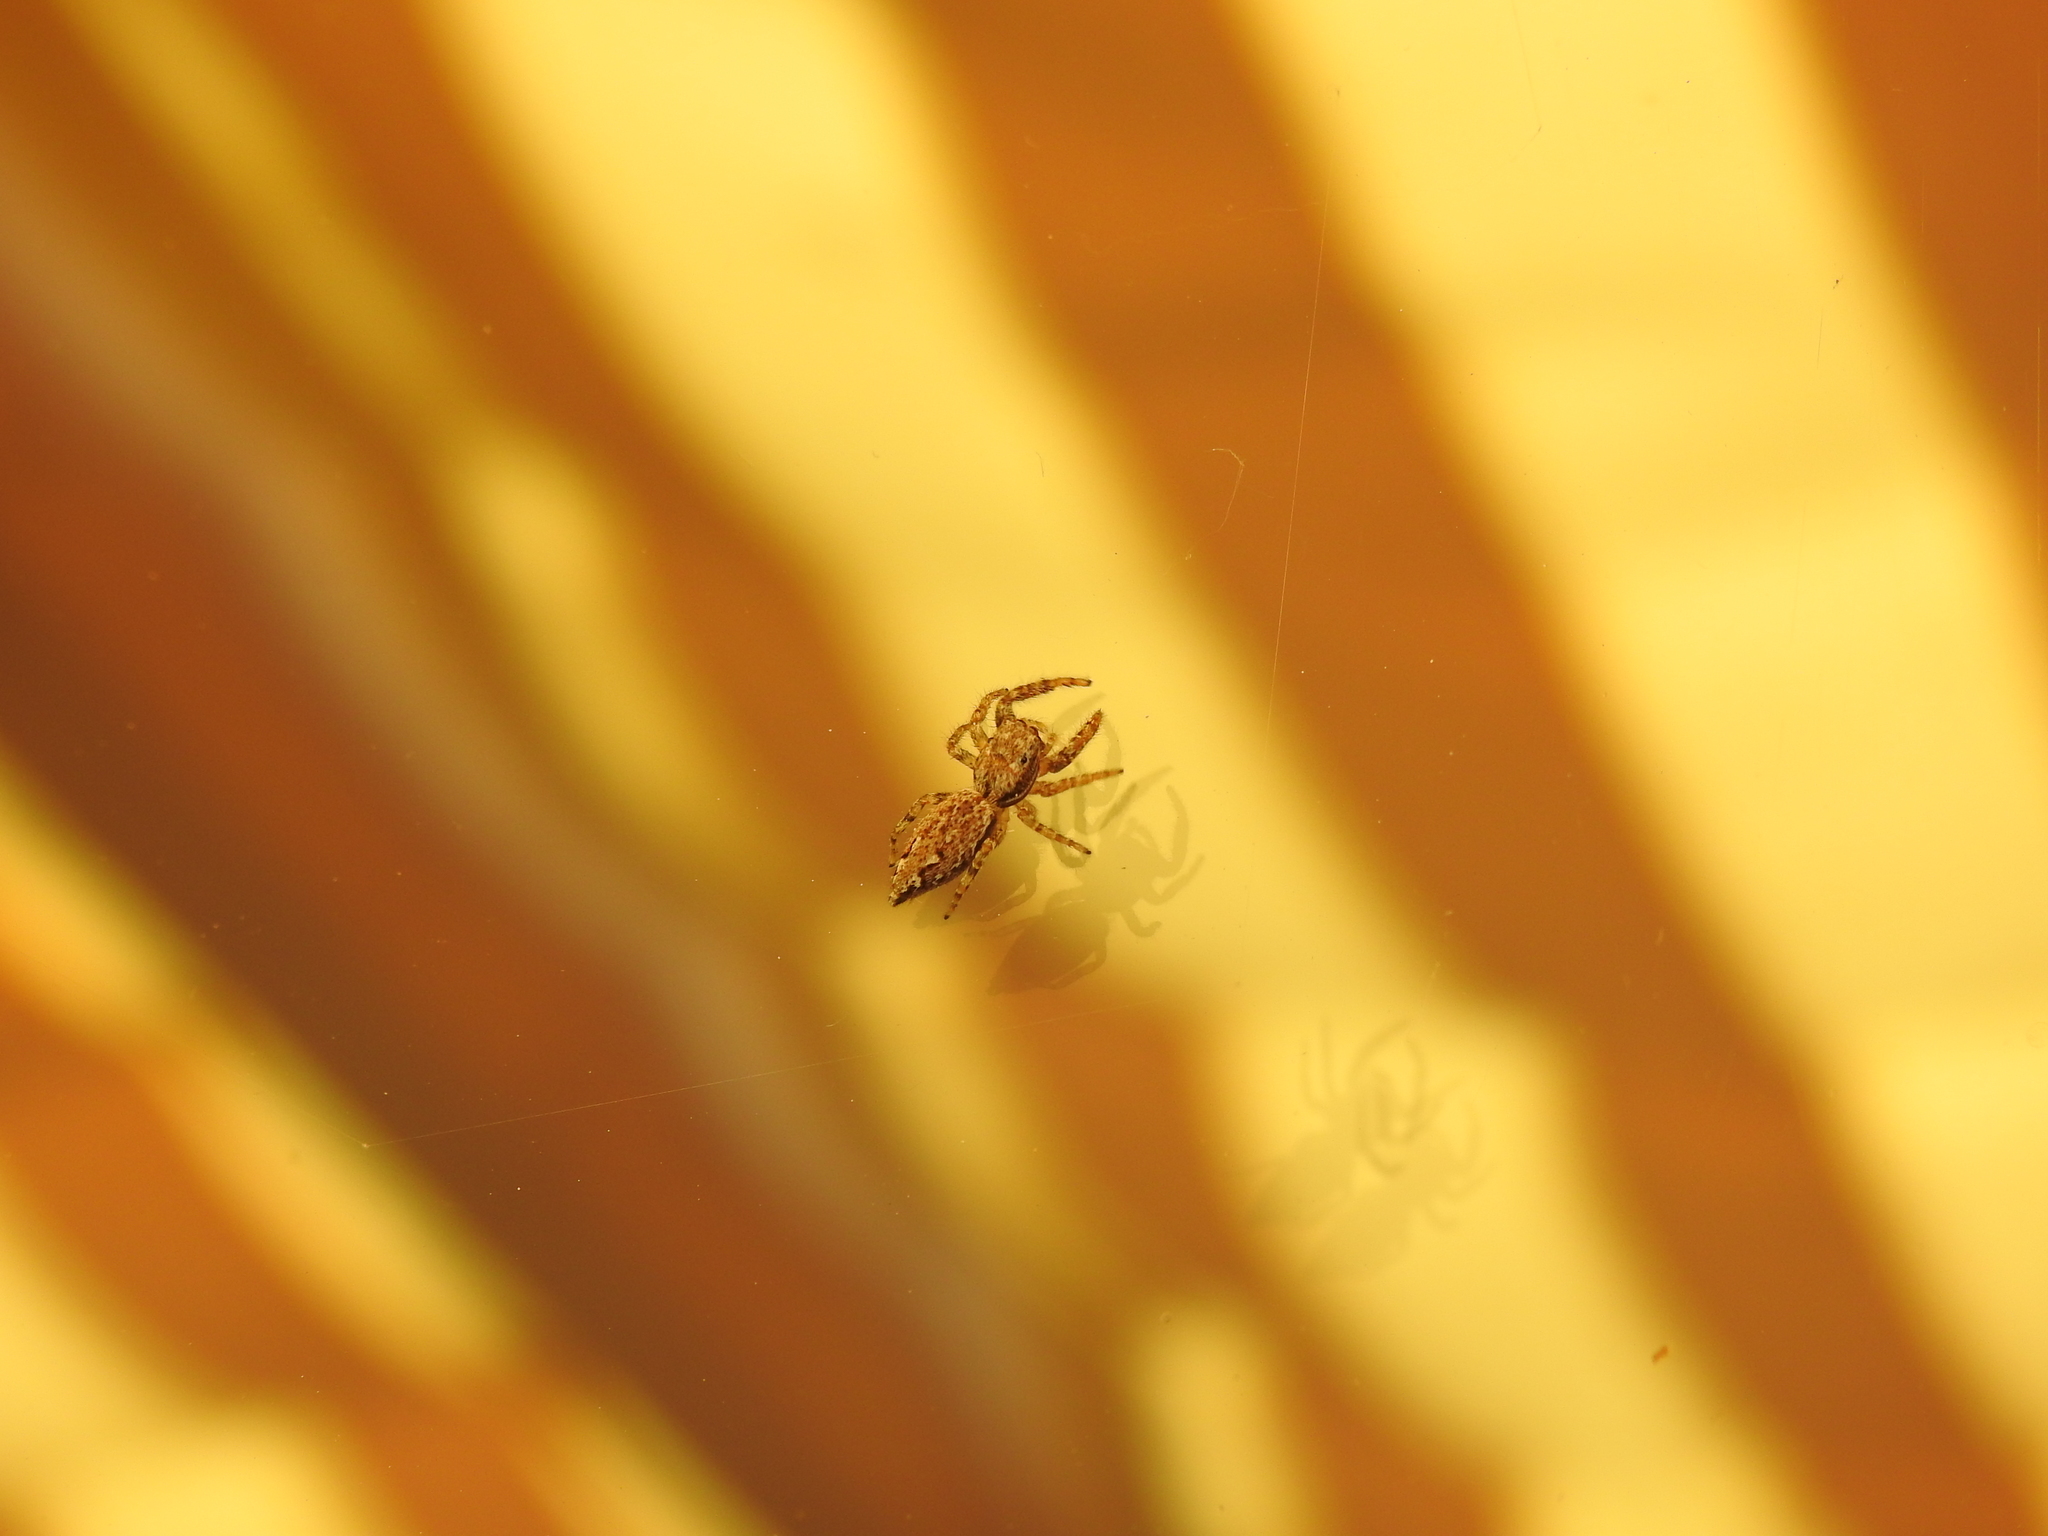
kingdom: Animalia
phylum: Arthropoda
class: Arachnida
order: Araneae
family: Salticidae
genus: Marpissa
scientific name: Marpissa muscosa
